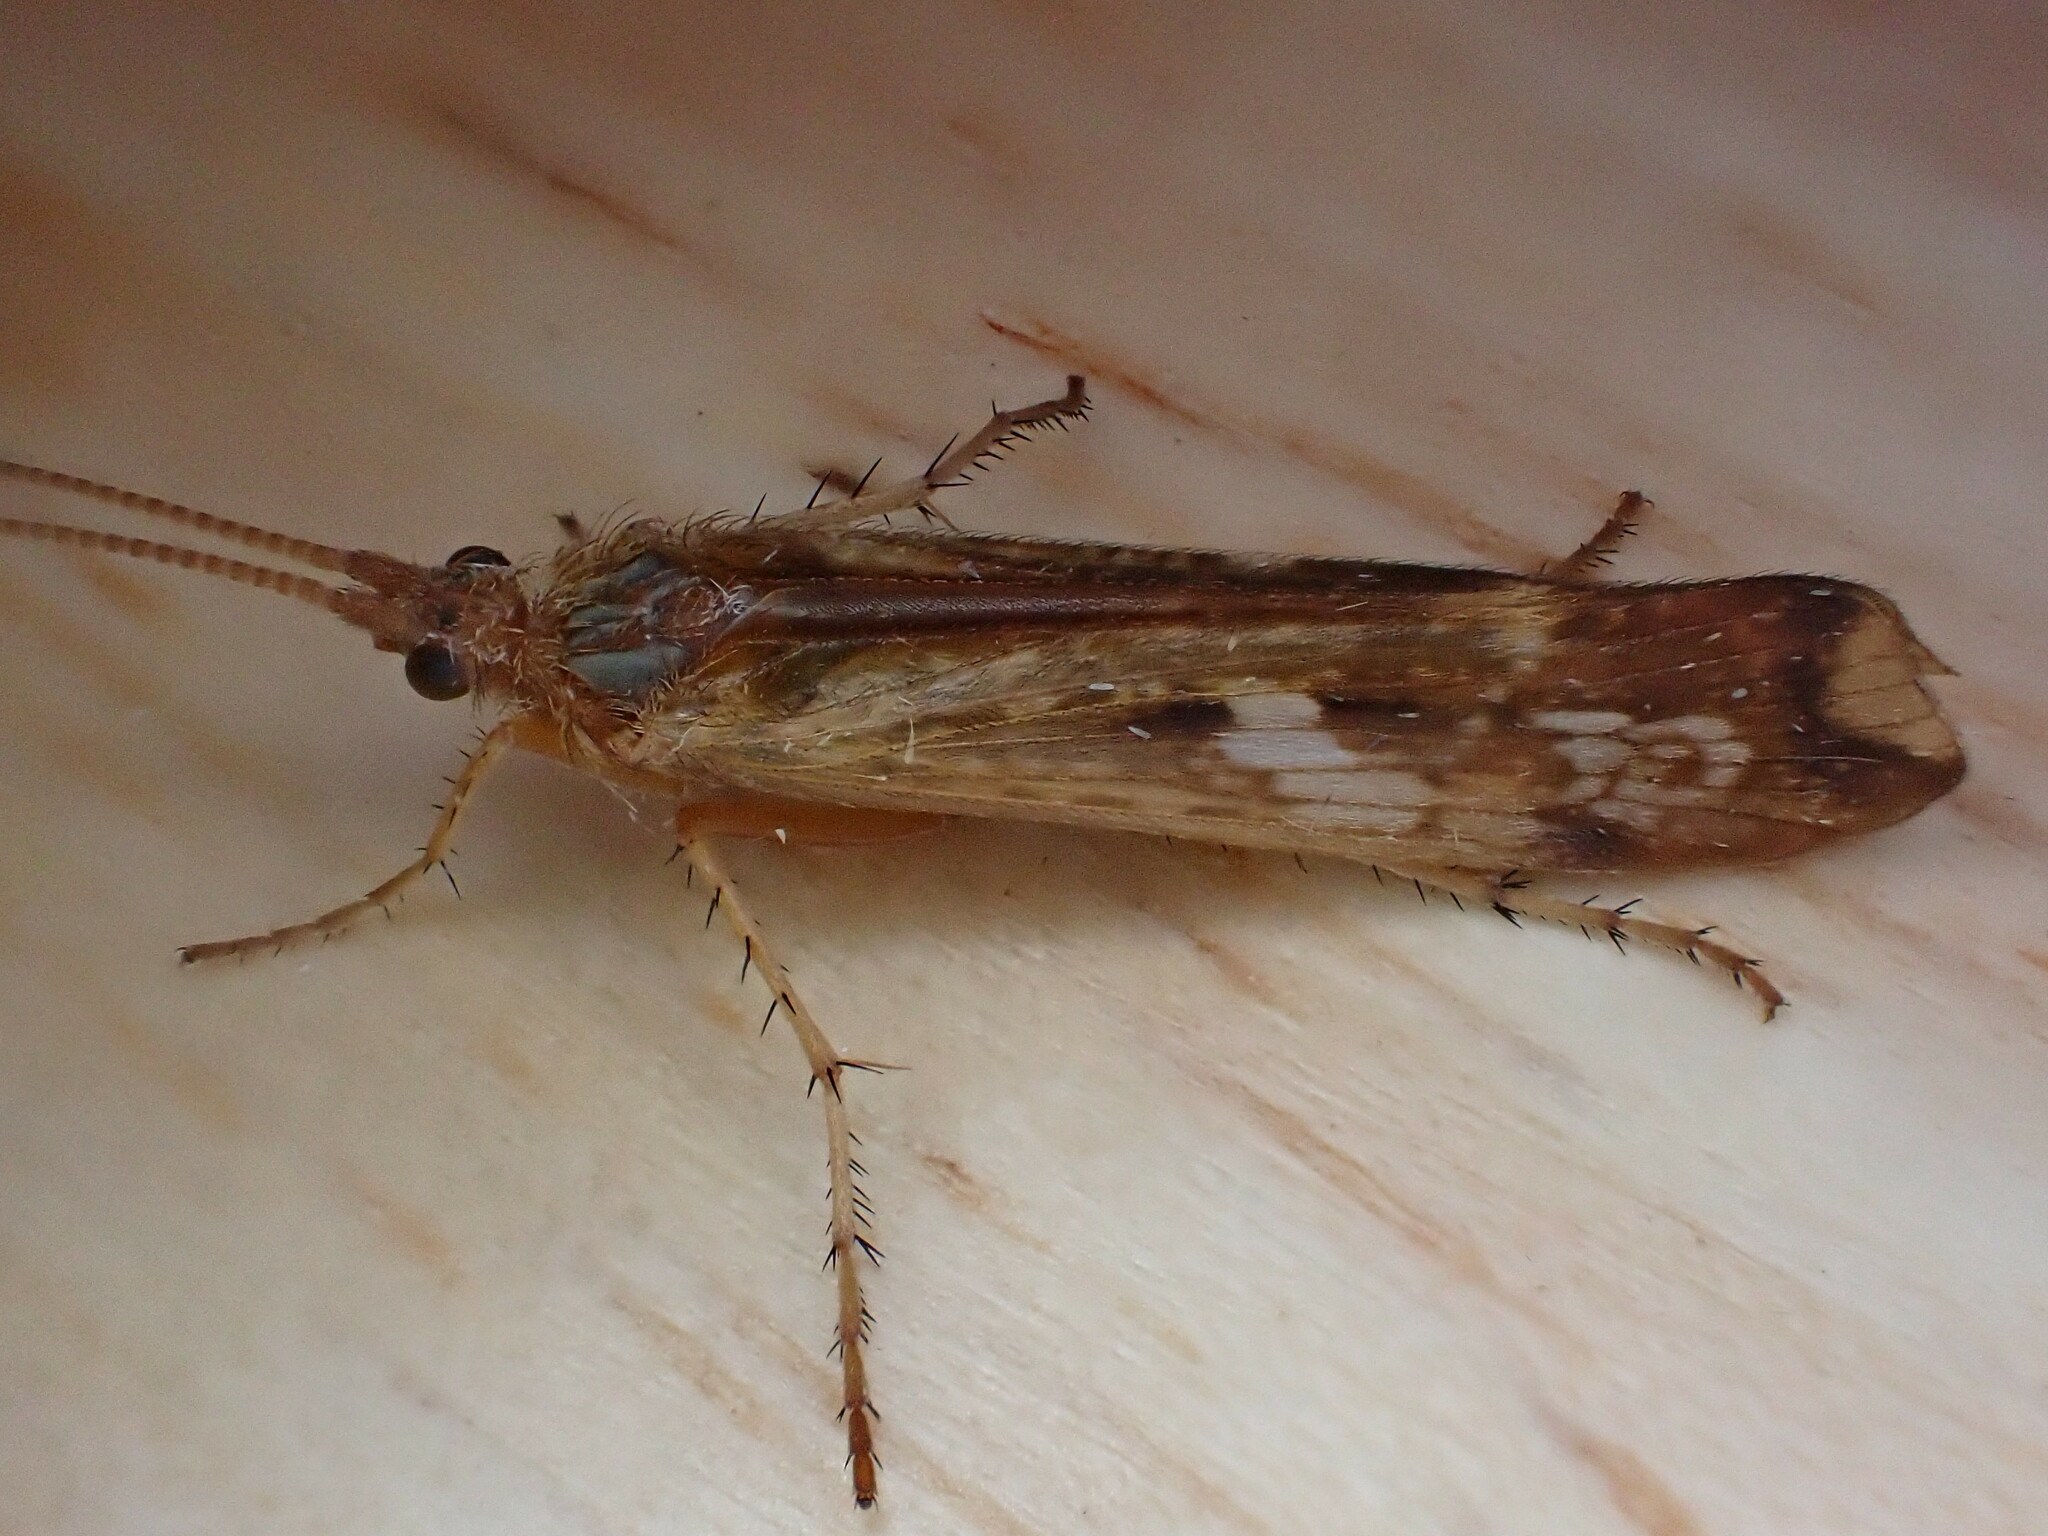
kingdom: Animalia
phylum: Arthropoda
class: Insecta
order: Trichoptera
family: Limnephilidae
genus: Limnephilus
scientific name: Limnephilus lunatus
